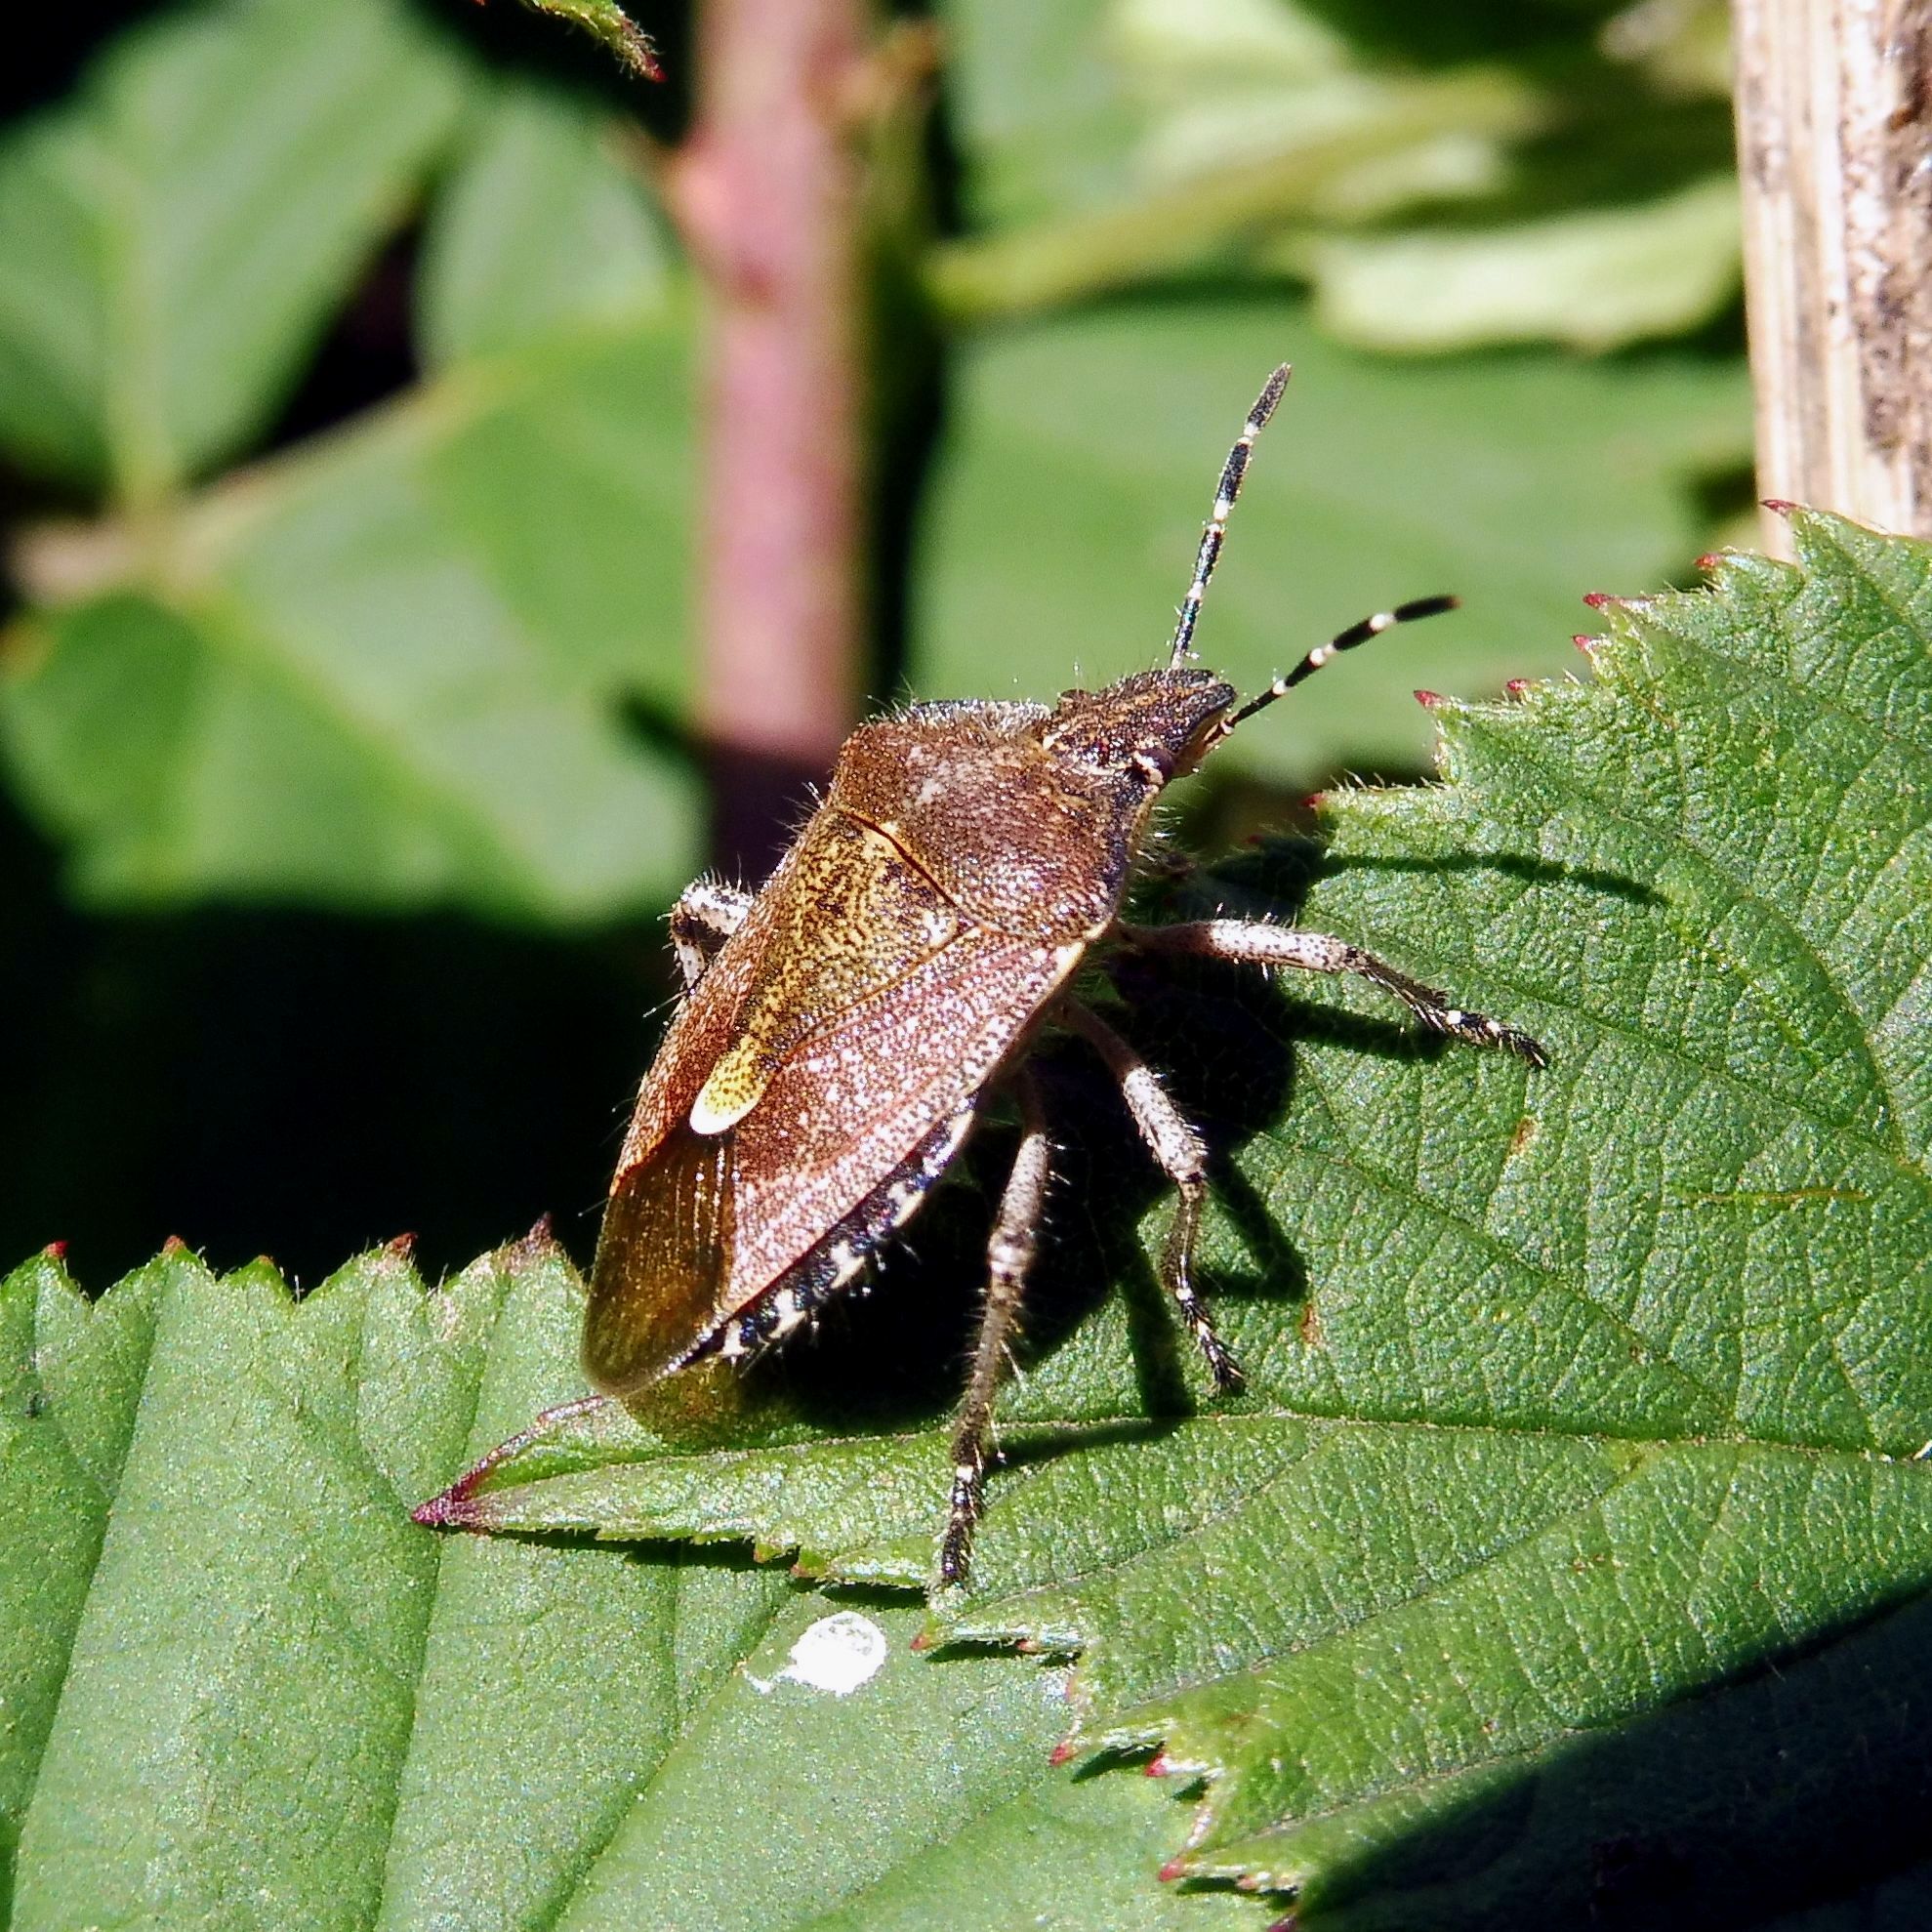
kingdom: Animalia
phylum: Arthropoda
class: Insecta
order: Hemiptera
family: Pentatomidae
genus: Dolycoris
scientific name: Dolycoris baccarum
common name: Sloe bug
